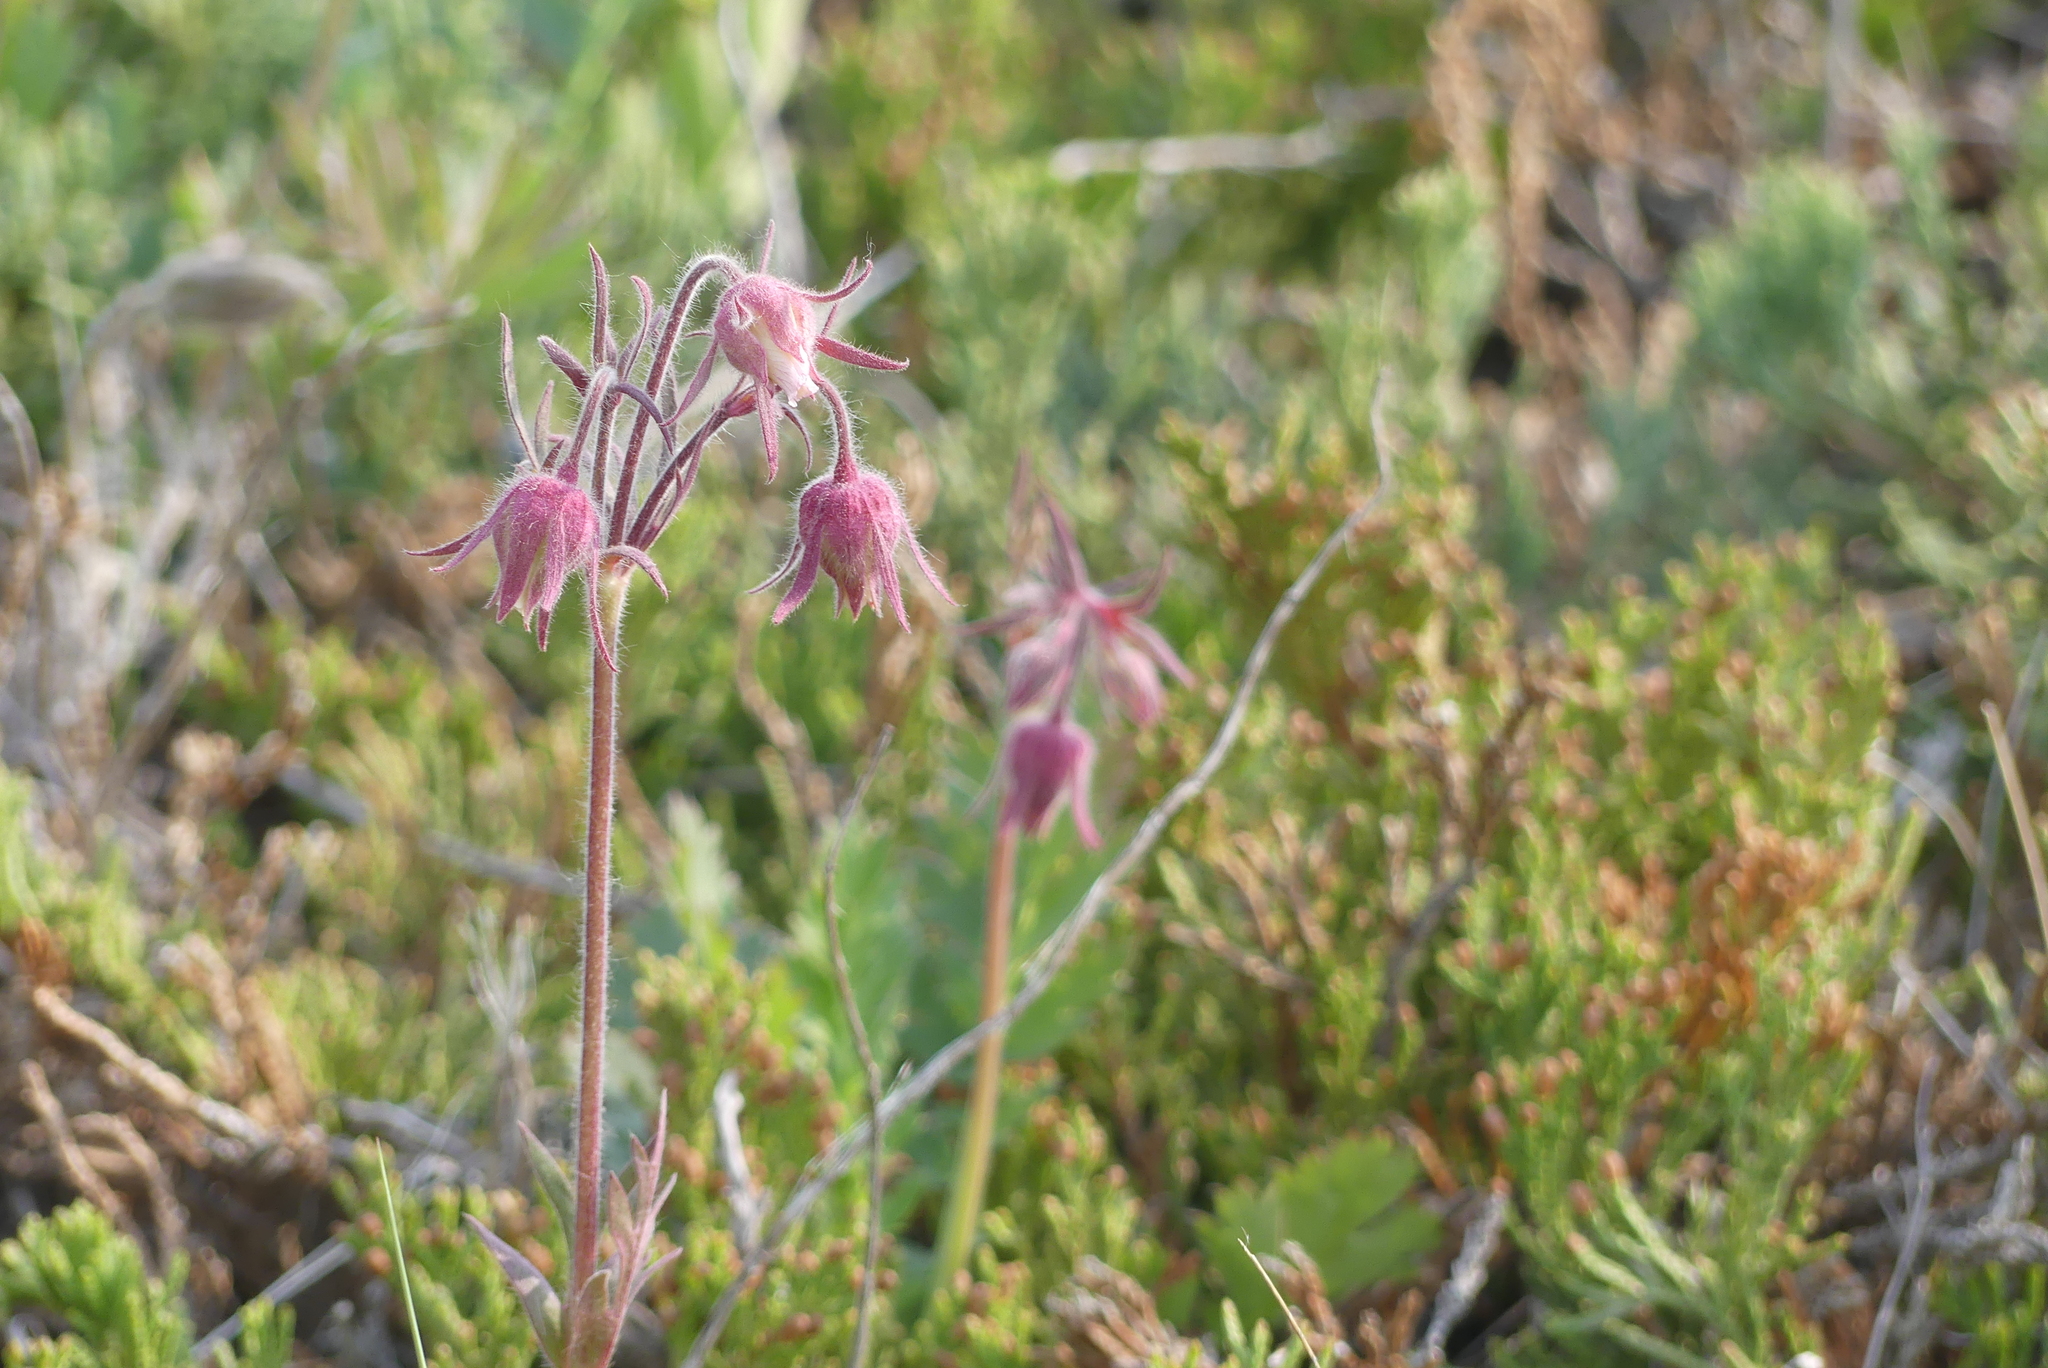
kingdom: Plantae
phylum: Tracheophyta
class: Magnoliopsida
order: Rosales
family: Rosaceae
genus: Geum
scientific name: Geum triflorum
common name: Old man's whiskers
